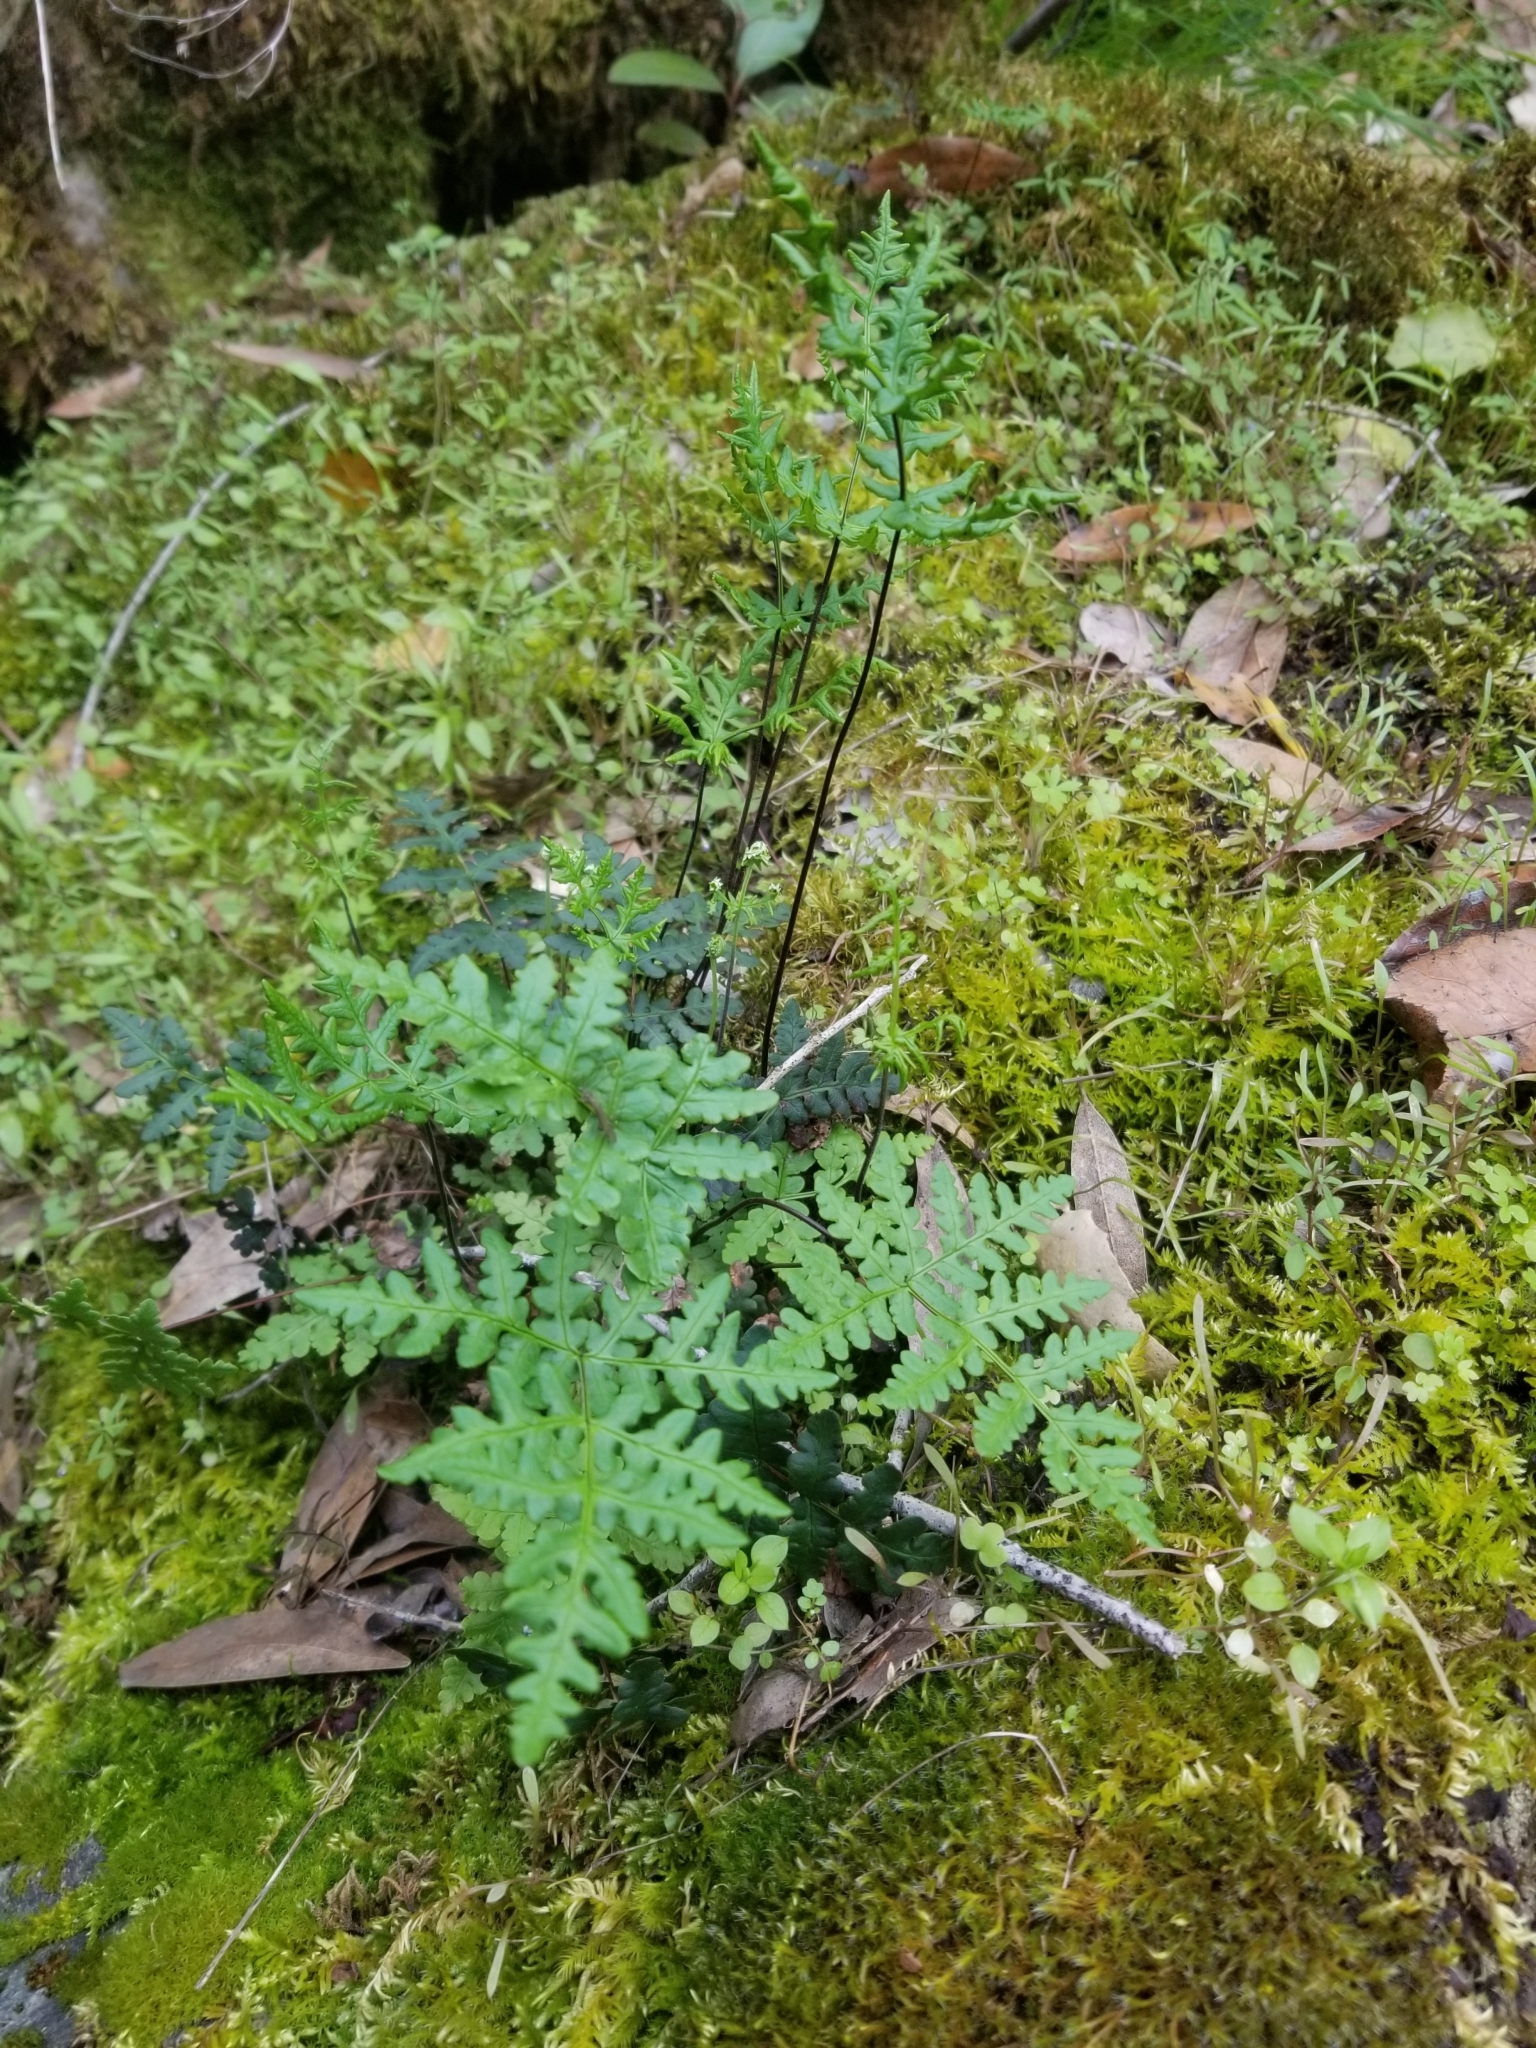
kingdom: Plantae
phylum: Tracheophyta
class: Polypodiopsida
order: Polypodiales
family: Pteridaceae
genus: Pentagramma
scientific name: Pentagramma triangularis
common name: Gold fern
